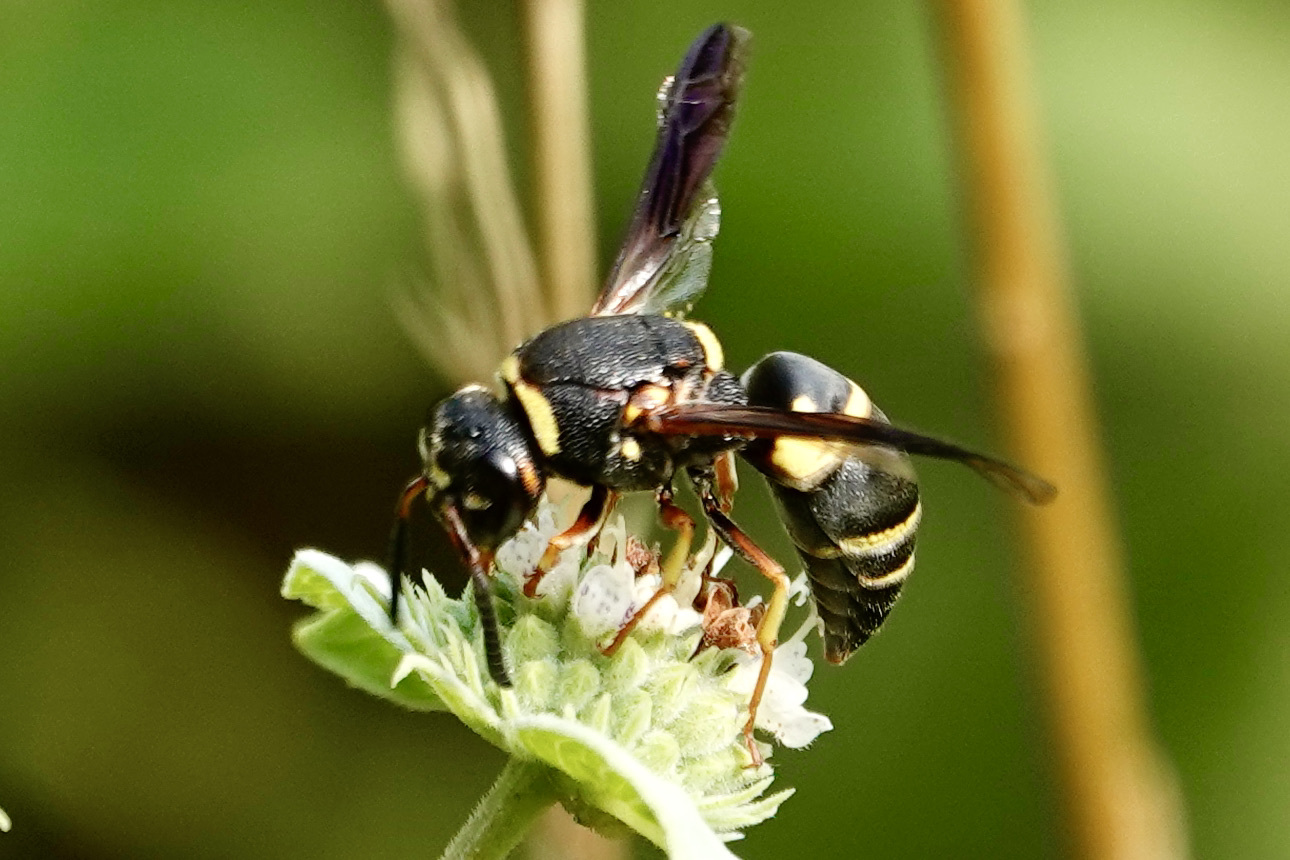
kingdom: Animalia
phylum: Arthropoda
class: Insecta
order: Hymenoptera
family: Eumenidae
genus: Euodynerus
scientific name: Euodynerus hidalgo
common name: Wasp
